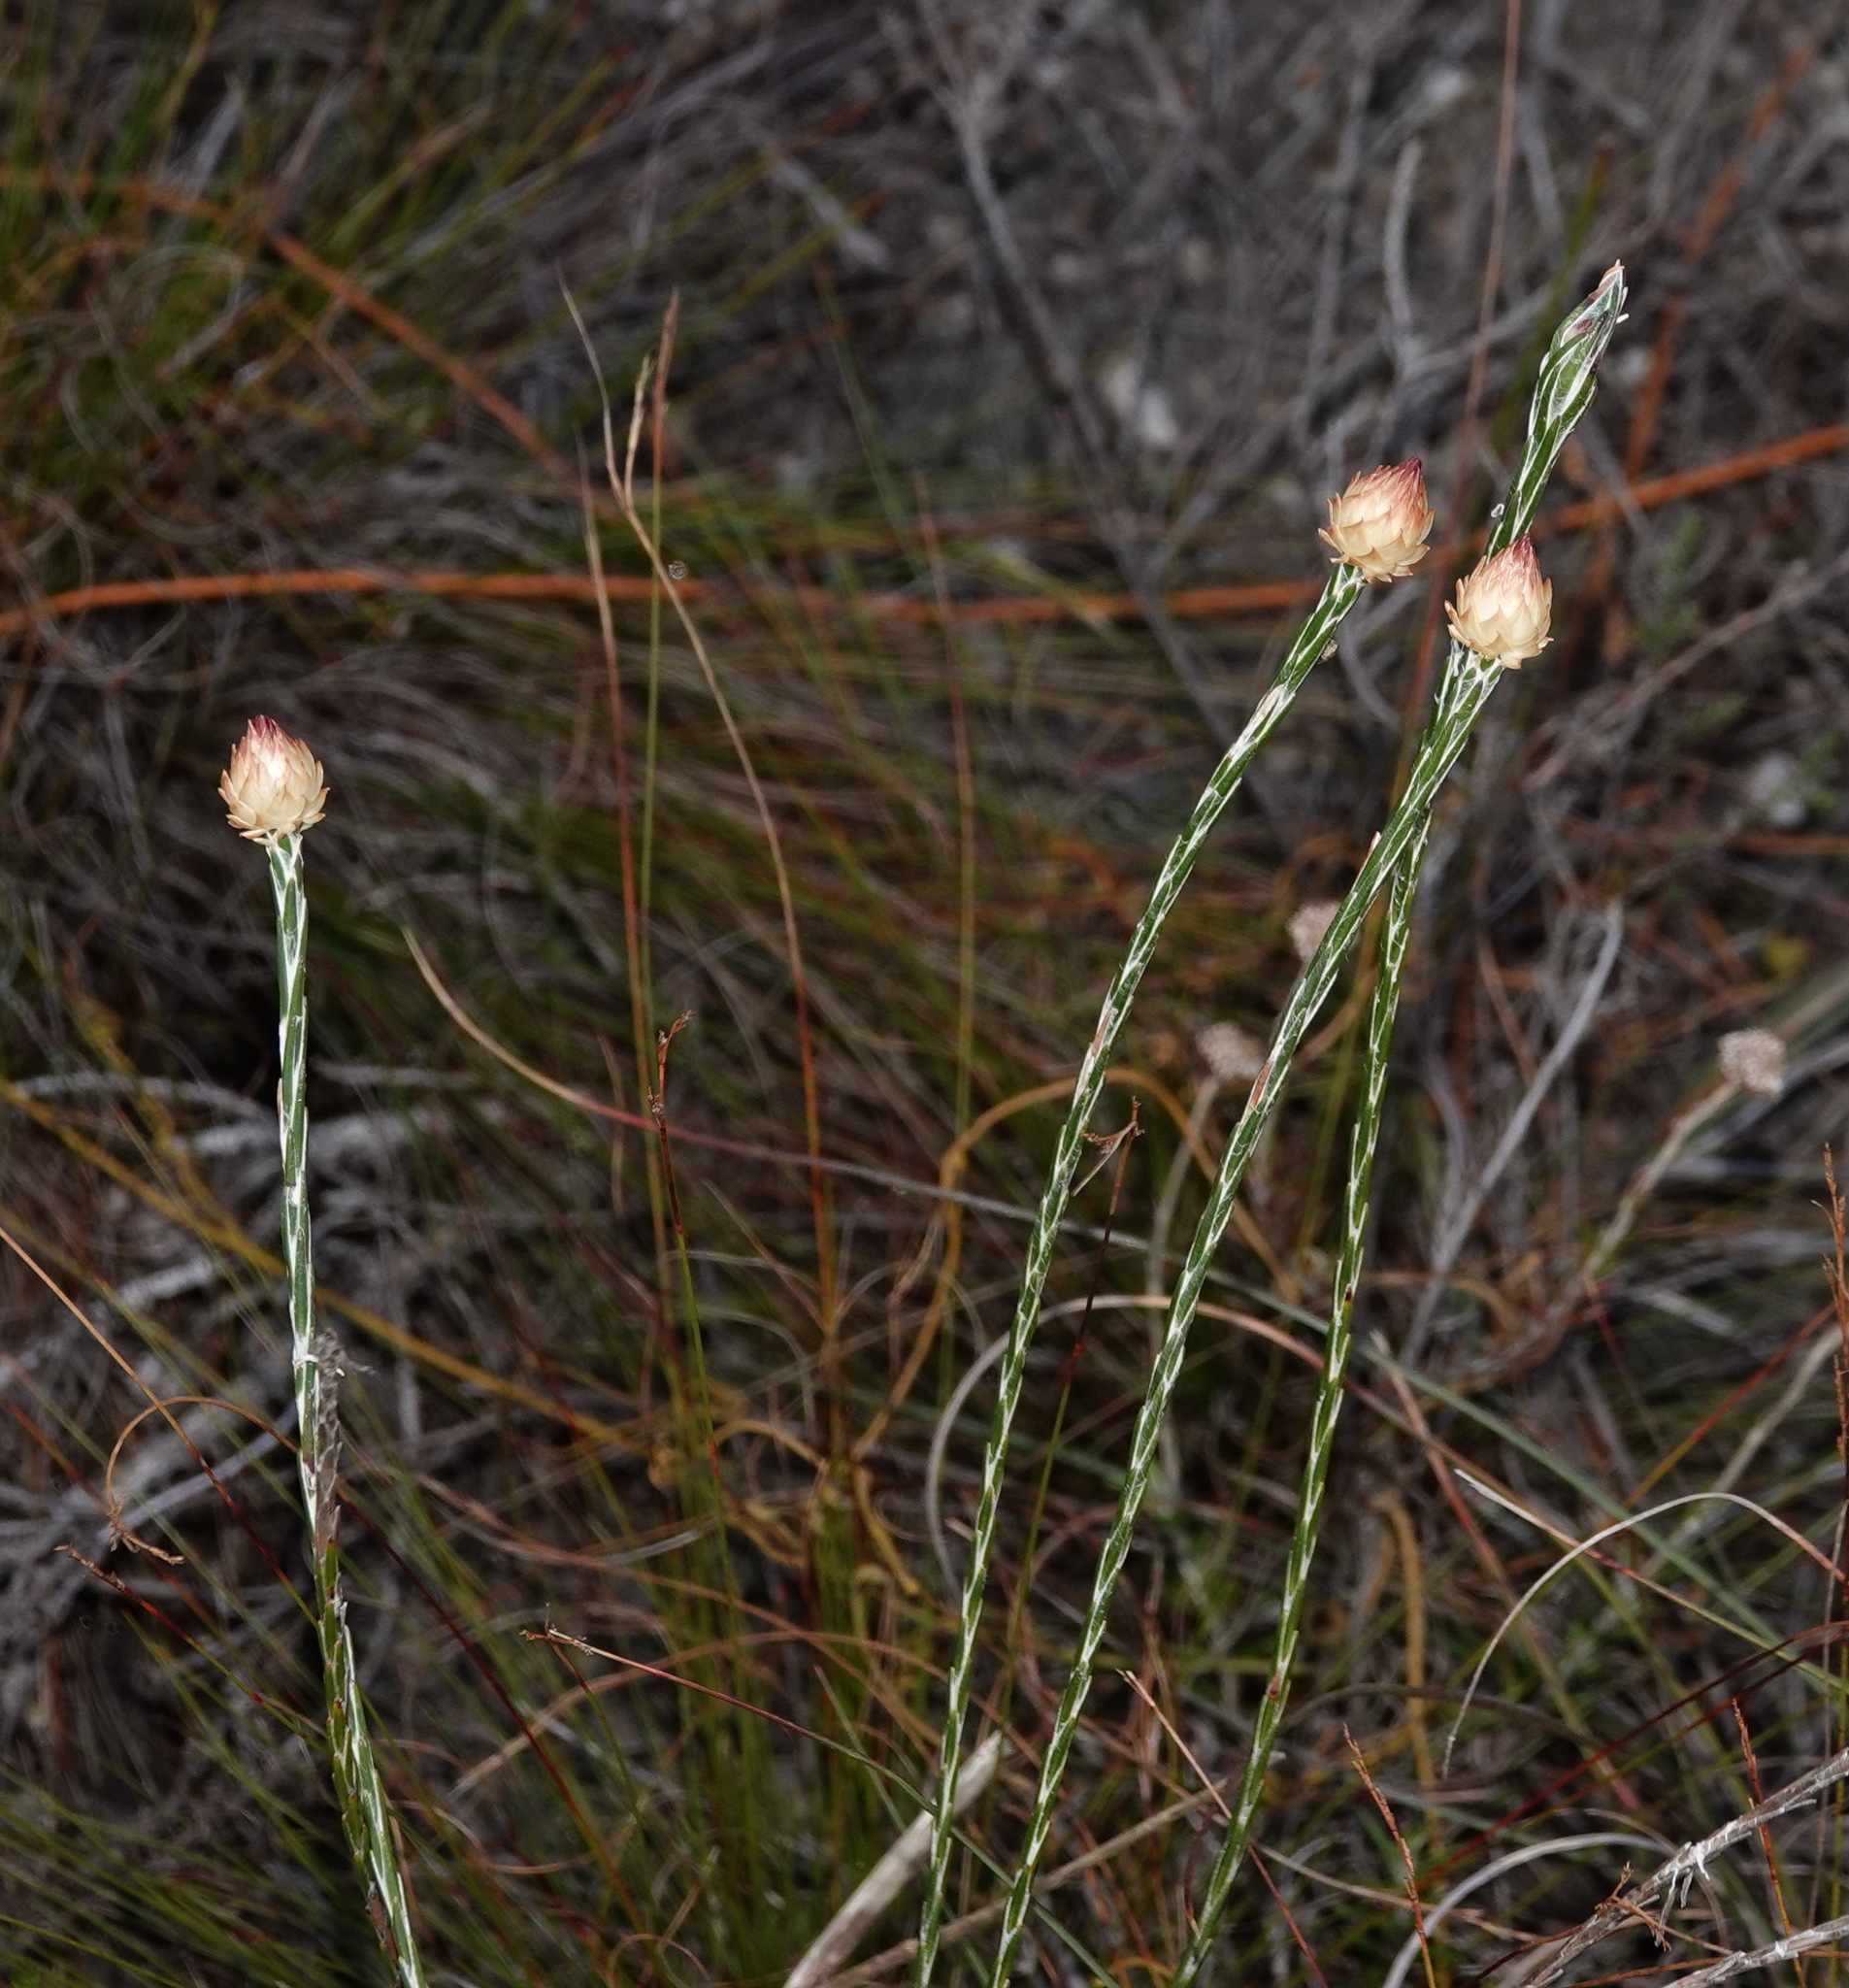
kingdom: Plantae
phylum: Tracheophyta
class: Magnoliopsida
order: Asterales
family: Asteraceae
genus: Edmondia
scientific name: Edmondia sesamoides
